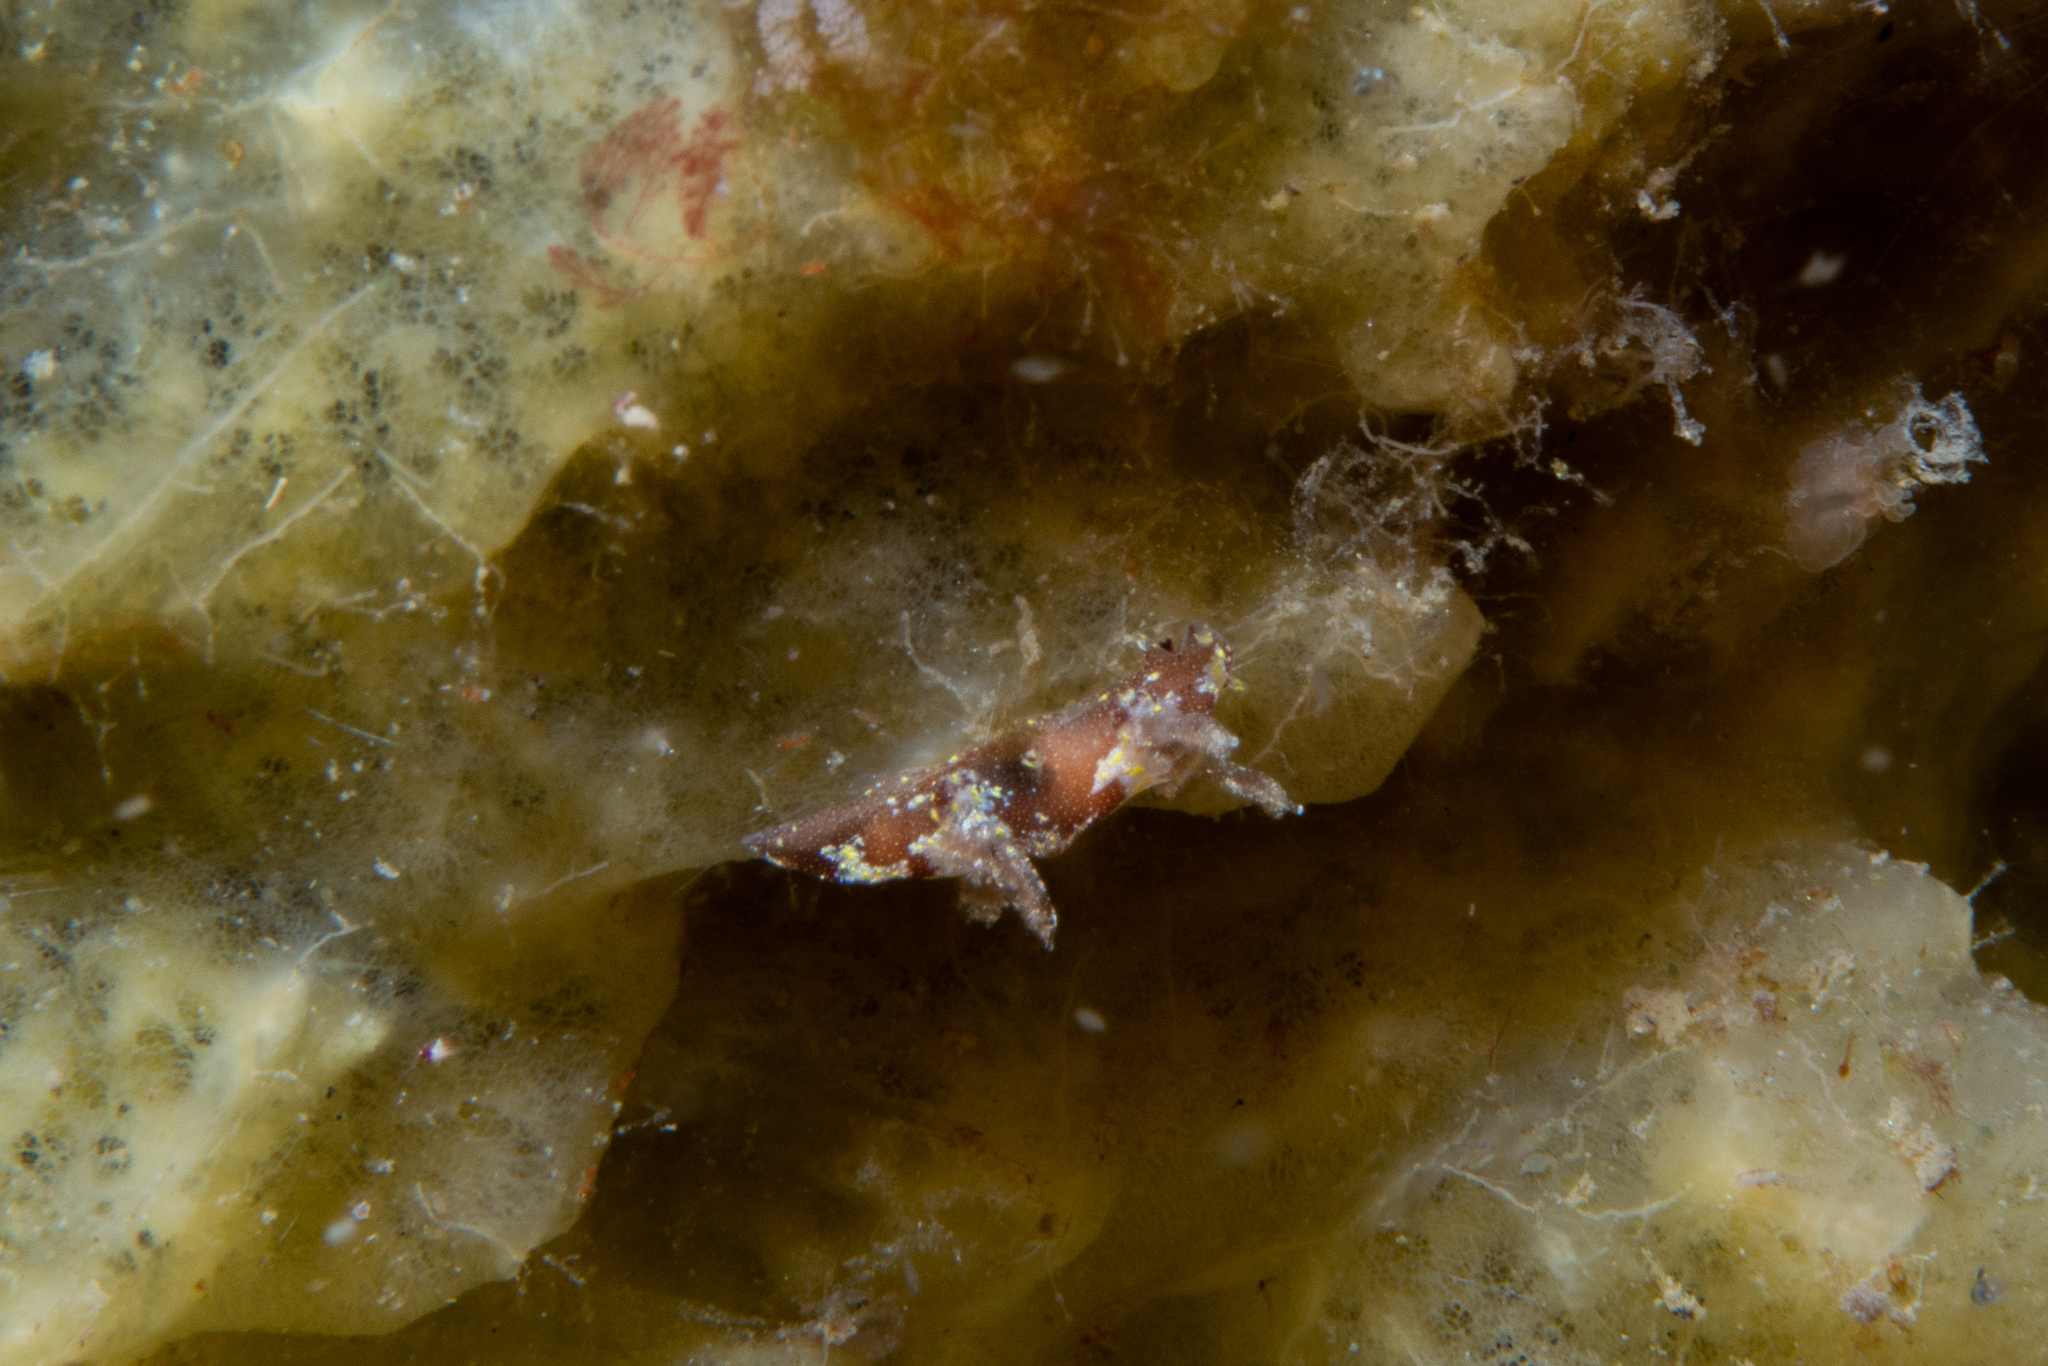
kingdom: Animalia
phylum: Mollusca
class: Gastropoda
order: Nudibranchia
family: Goniodorididae
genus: Trapania
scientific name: Trapania benni
